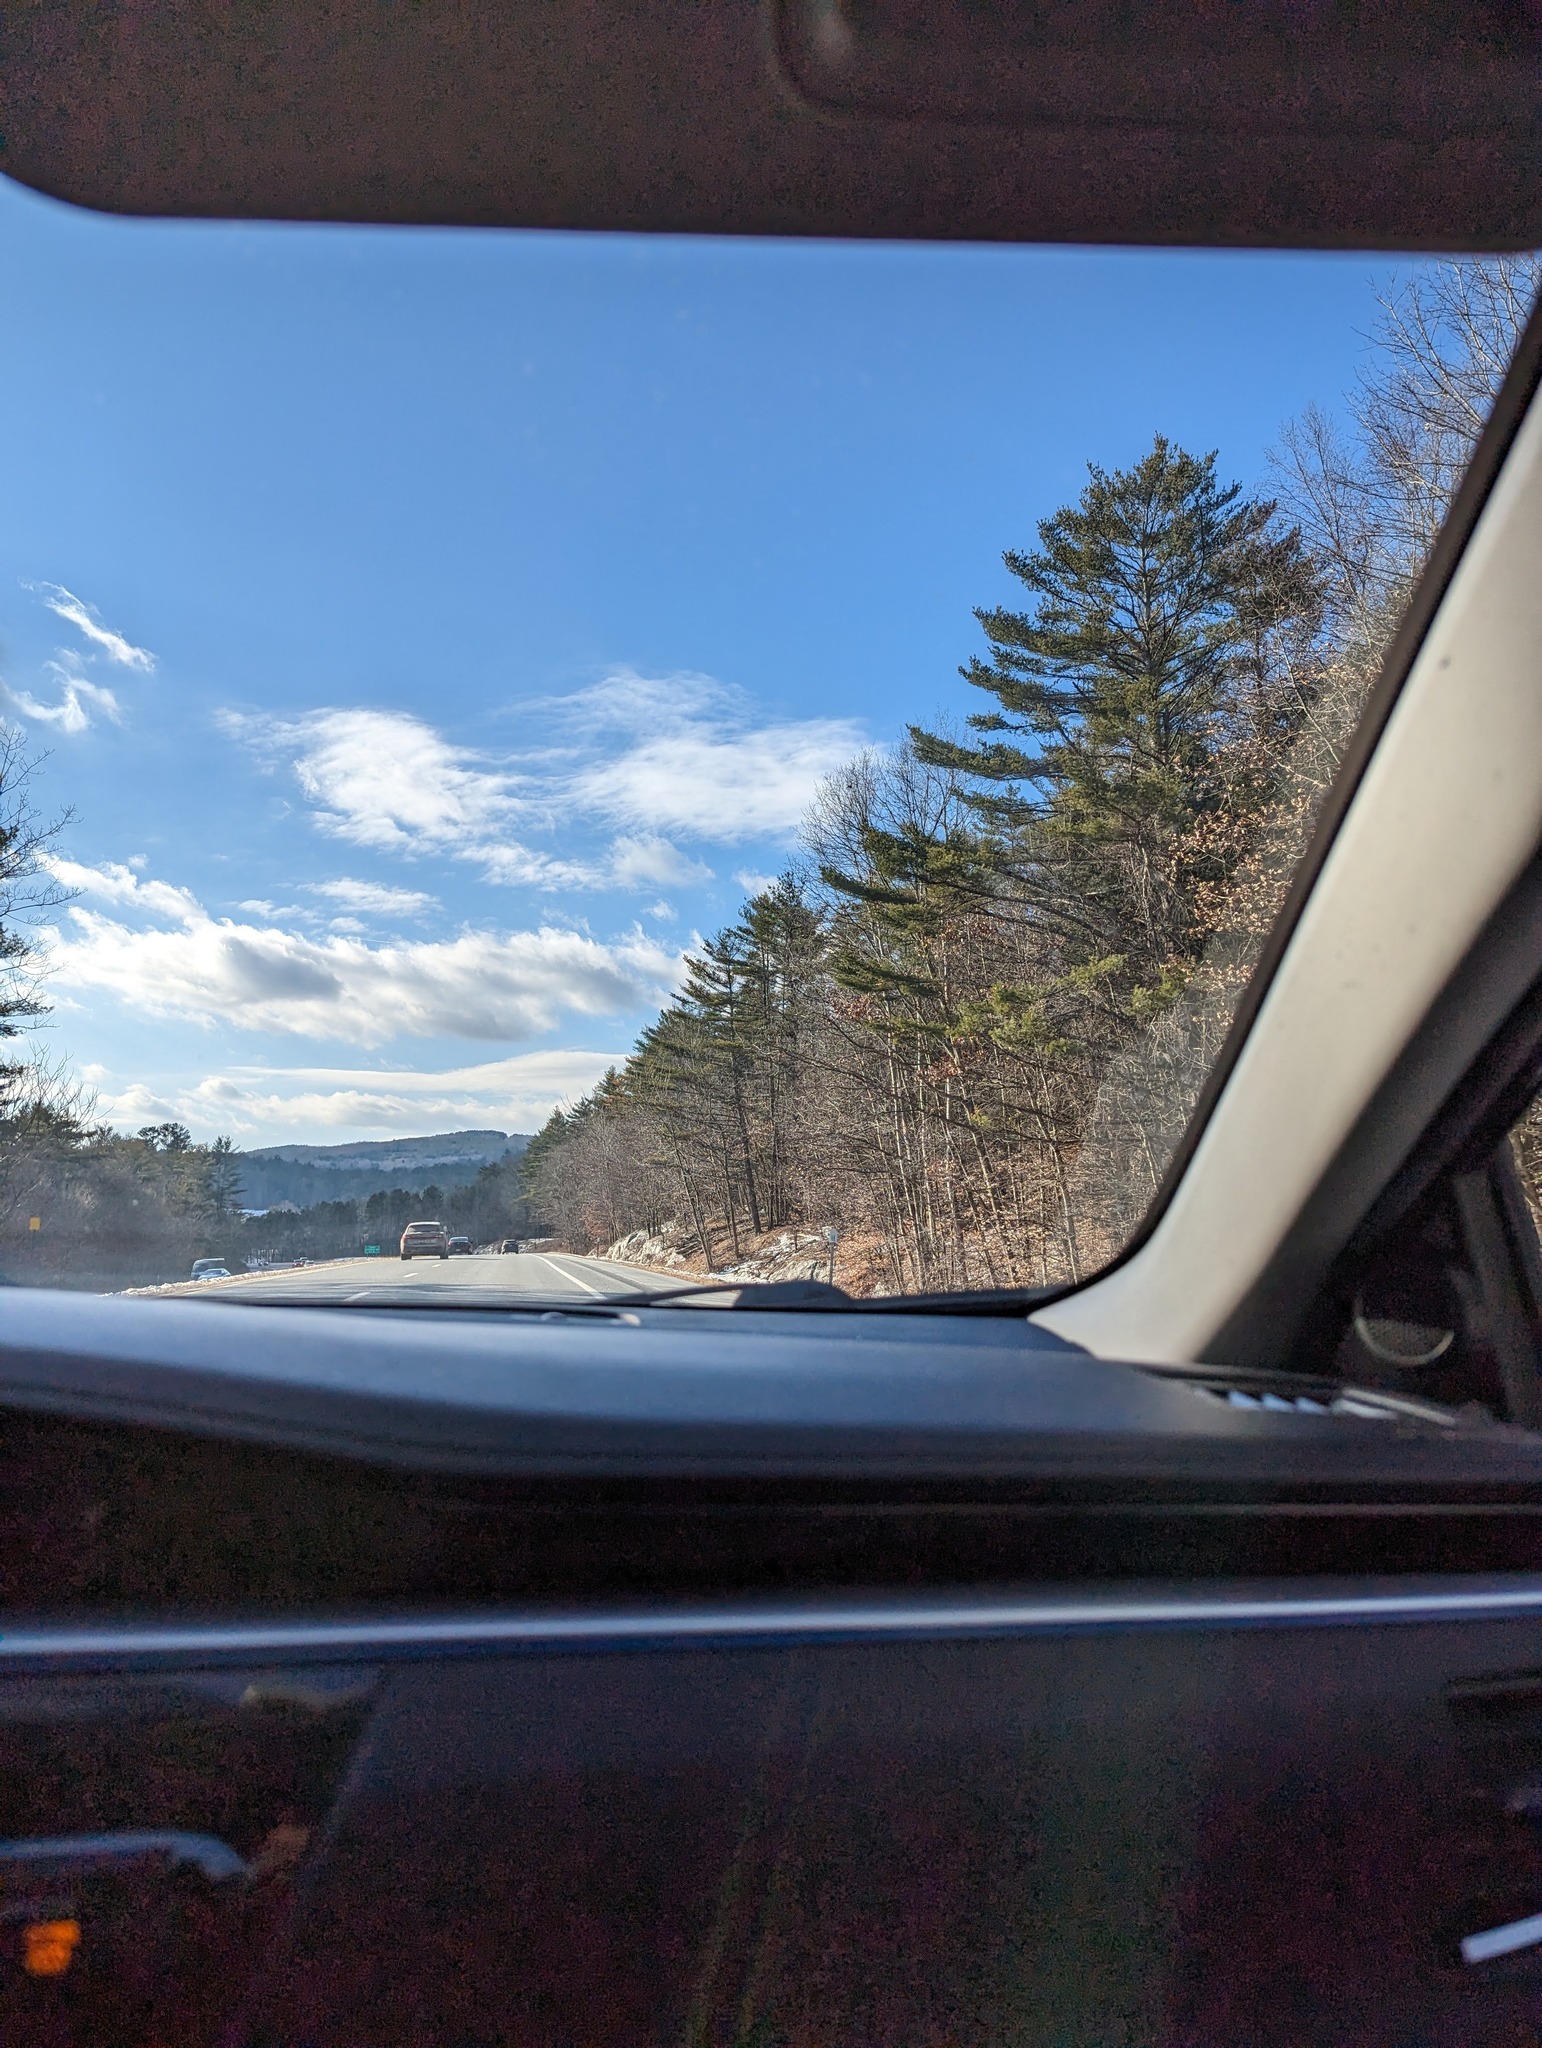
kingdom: Plantae
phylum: Tracheophyta
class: Pinopsida
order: Pinales
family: Pinaceae
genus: Pinus
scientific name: Pinus strobus
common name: Weymouth pine
